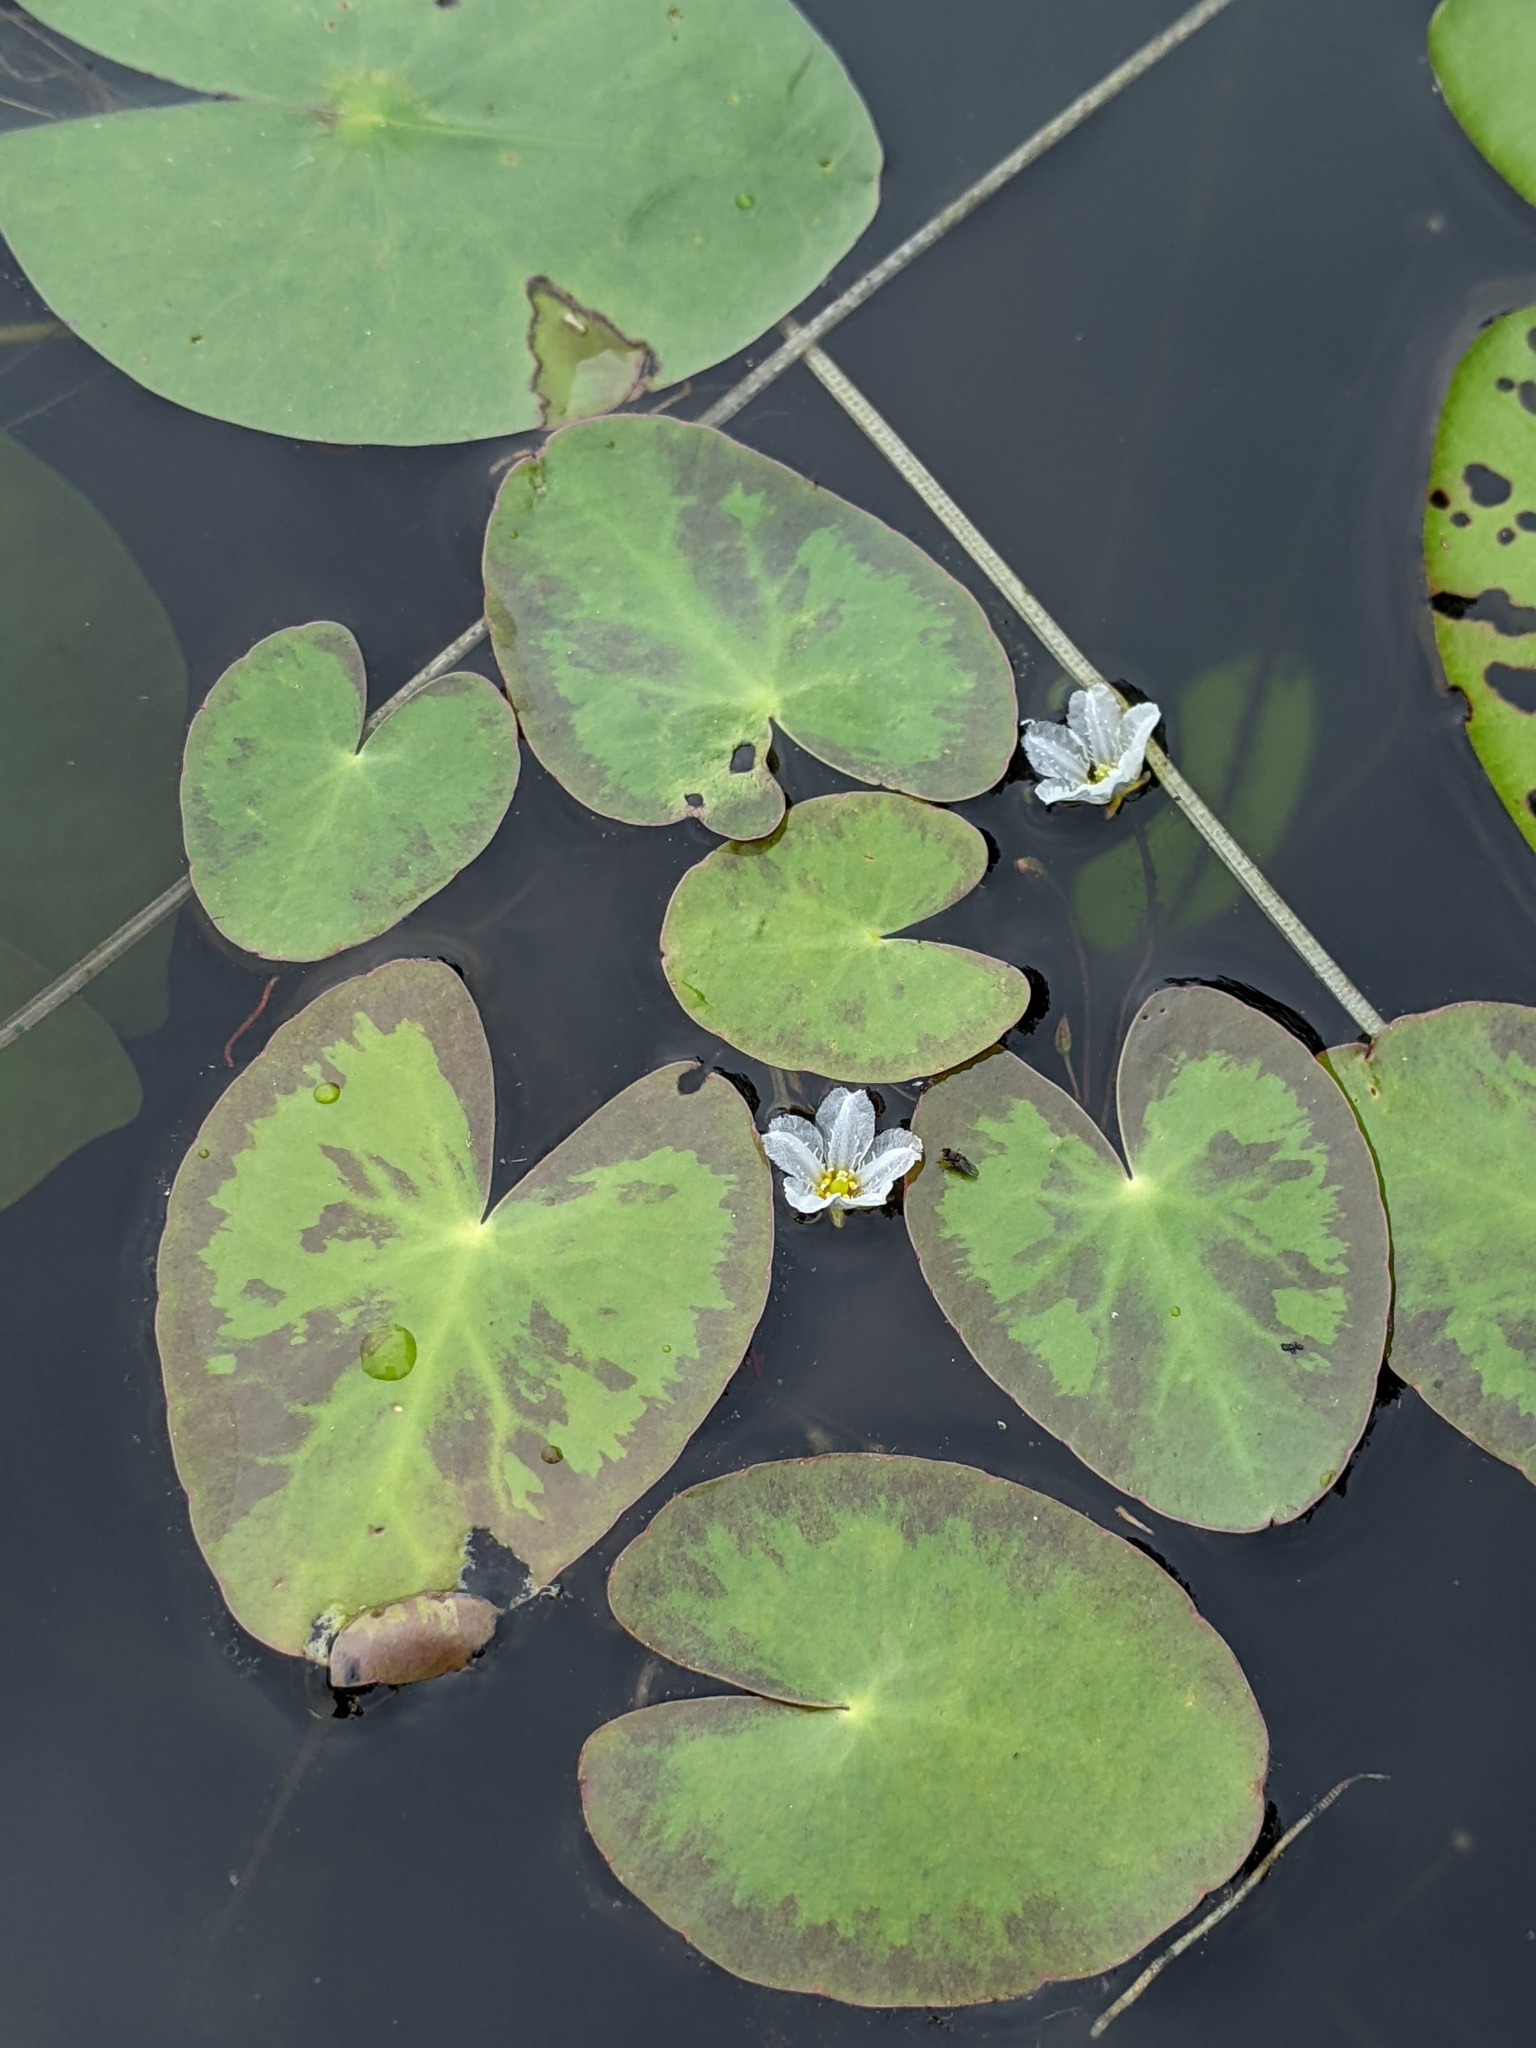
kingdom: Plantae
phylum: Tracheophyta
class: Magnoliopsida
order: Asterales
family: Menyanthaceae
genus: Nymphoides
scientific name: Nymphoides cordata
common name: Eight-angled floatingheart
